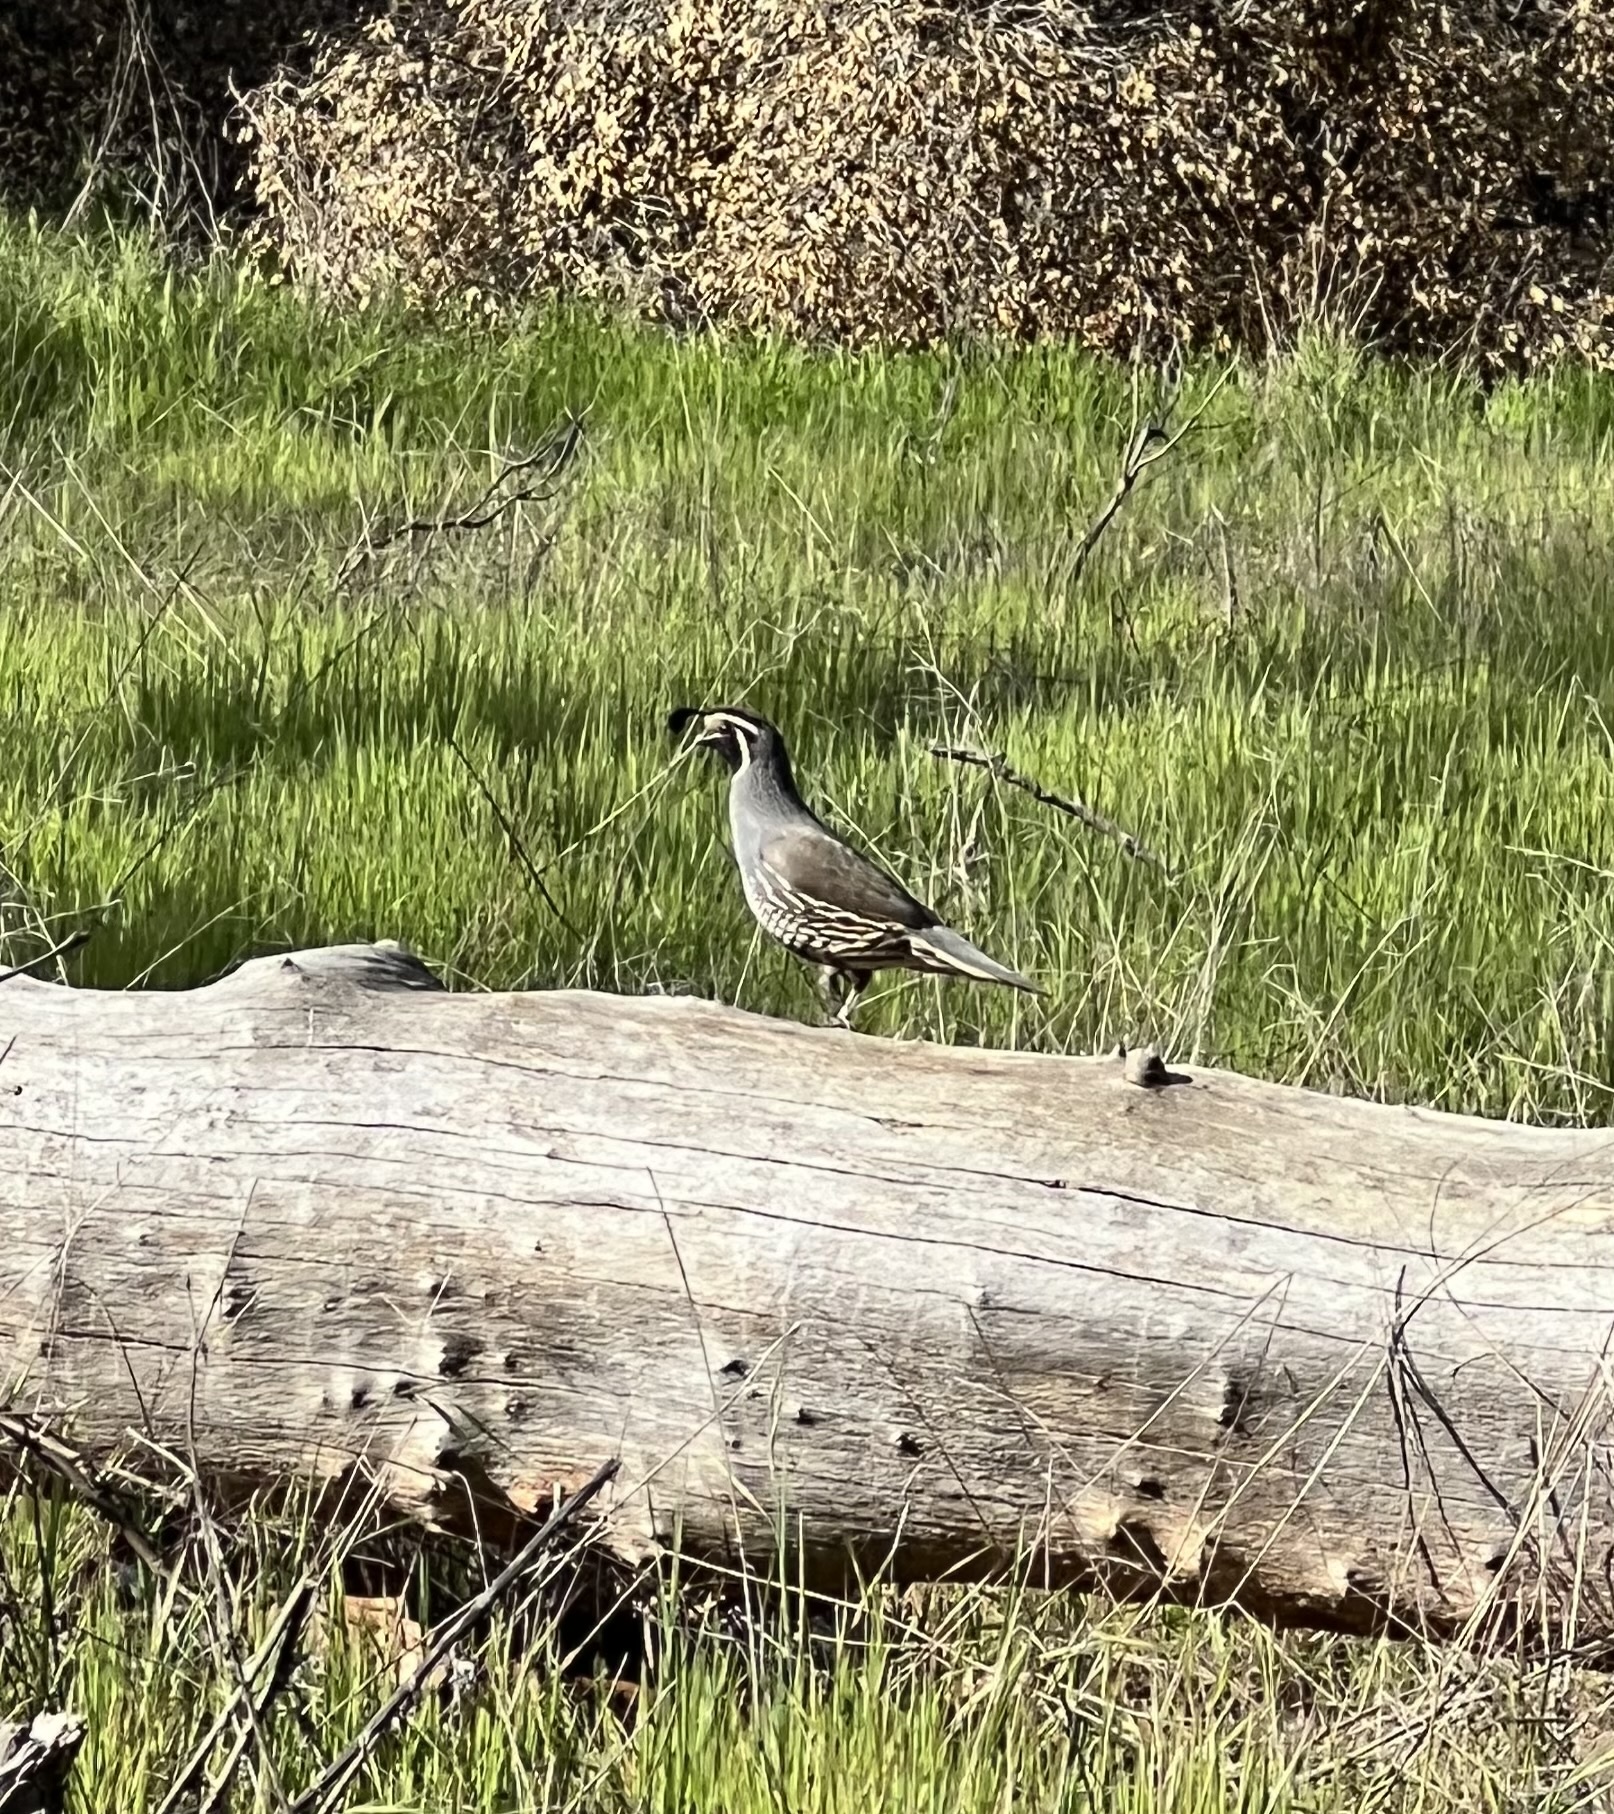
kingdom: Animalia
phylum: Chordata
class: Aves
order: Galliformes
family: Odontophoridae
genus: Callipepla
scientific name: Callipepla californica
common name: California quail
